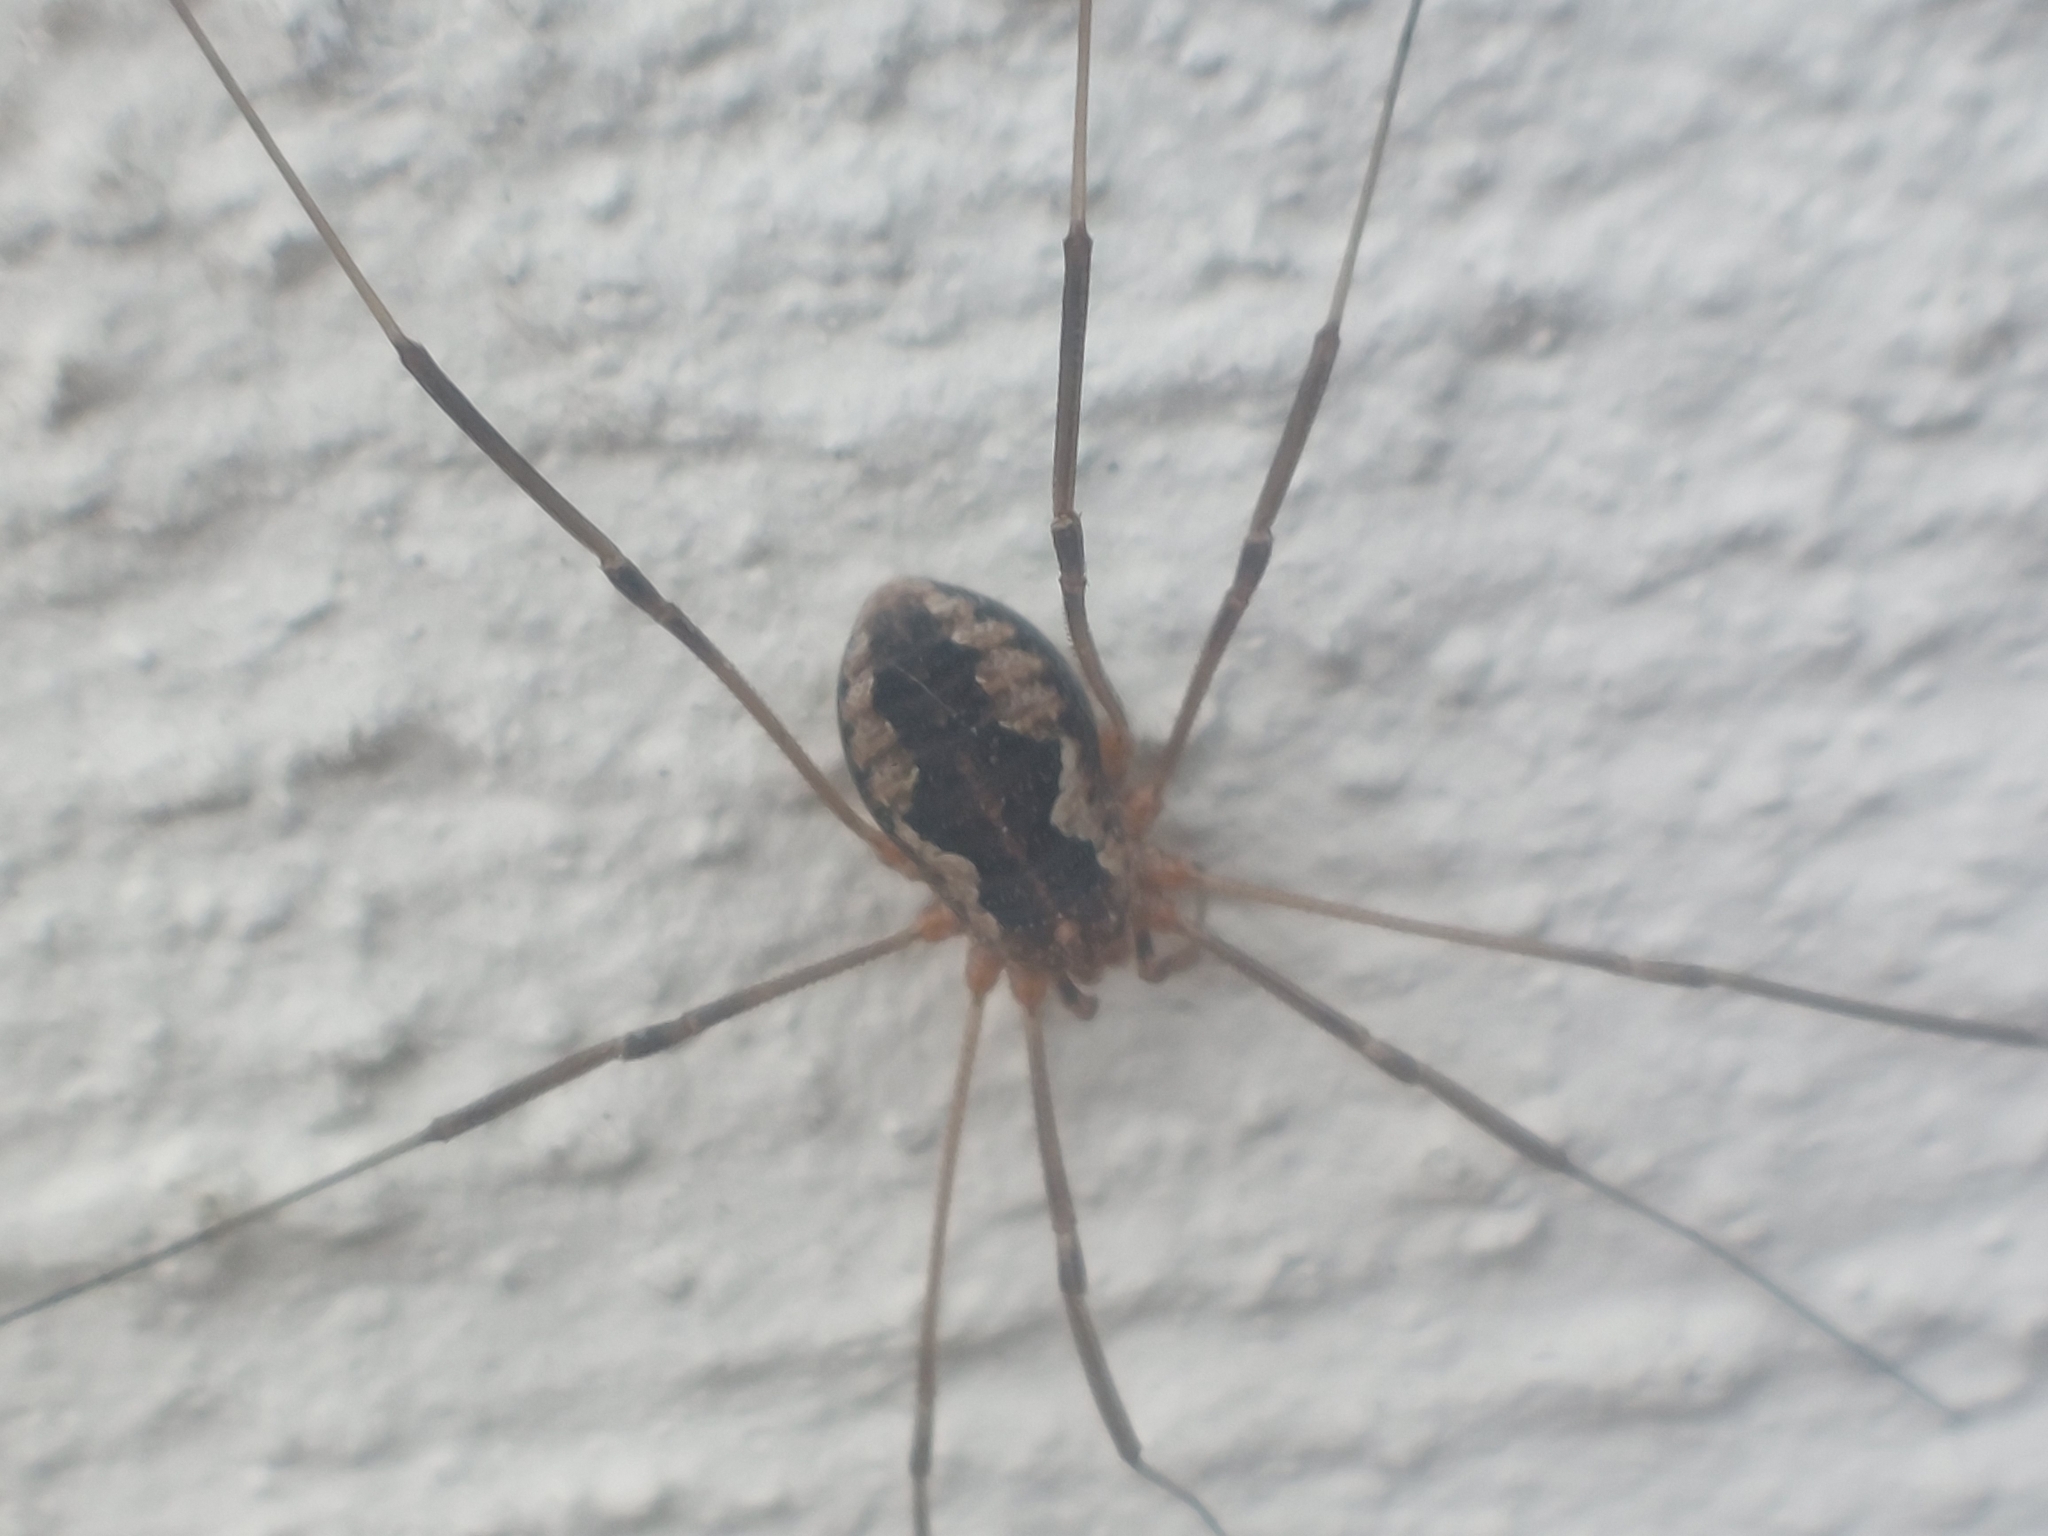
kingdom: Animalia
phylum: Arthropoda
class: Arachnida
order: Opiliones
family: Phalangiidae
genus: Phalangium
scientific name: Phalangium opilio
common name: Daddy longleg
